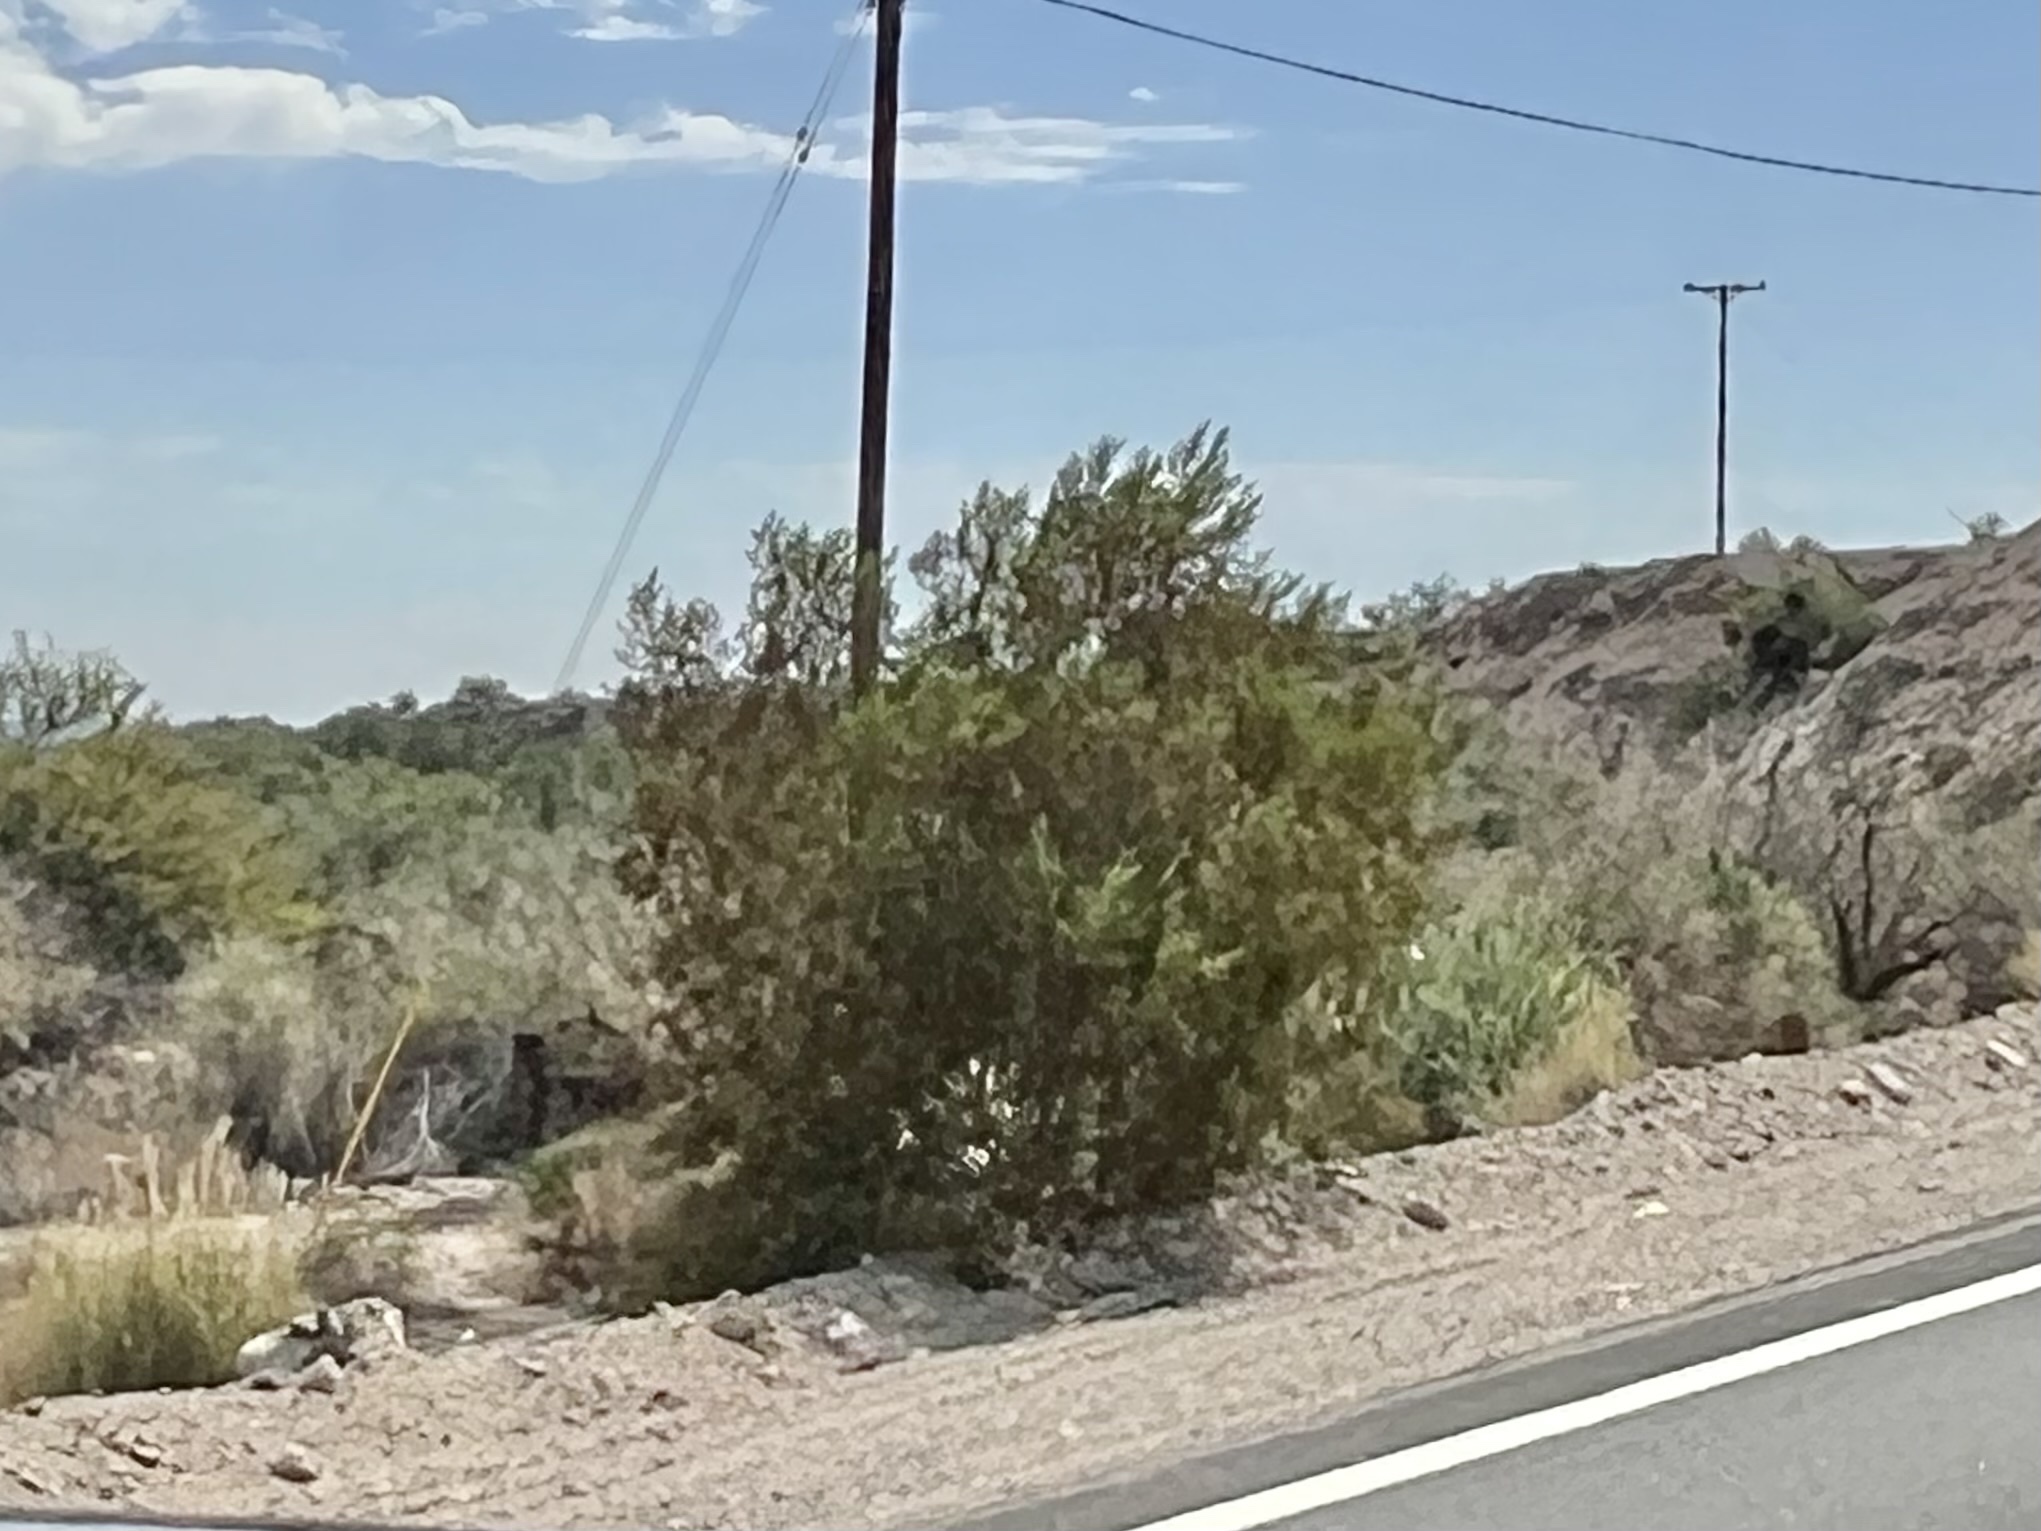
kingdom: Plantae
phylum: Tracheophyta
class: Magnoliopsida
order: Zygophyllales
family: Zygophyllaceae
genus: Larrea
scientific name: Larrea tridentata
